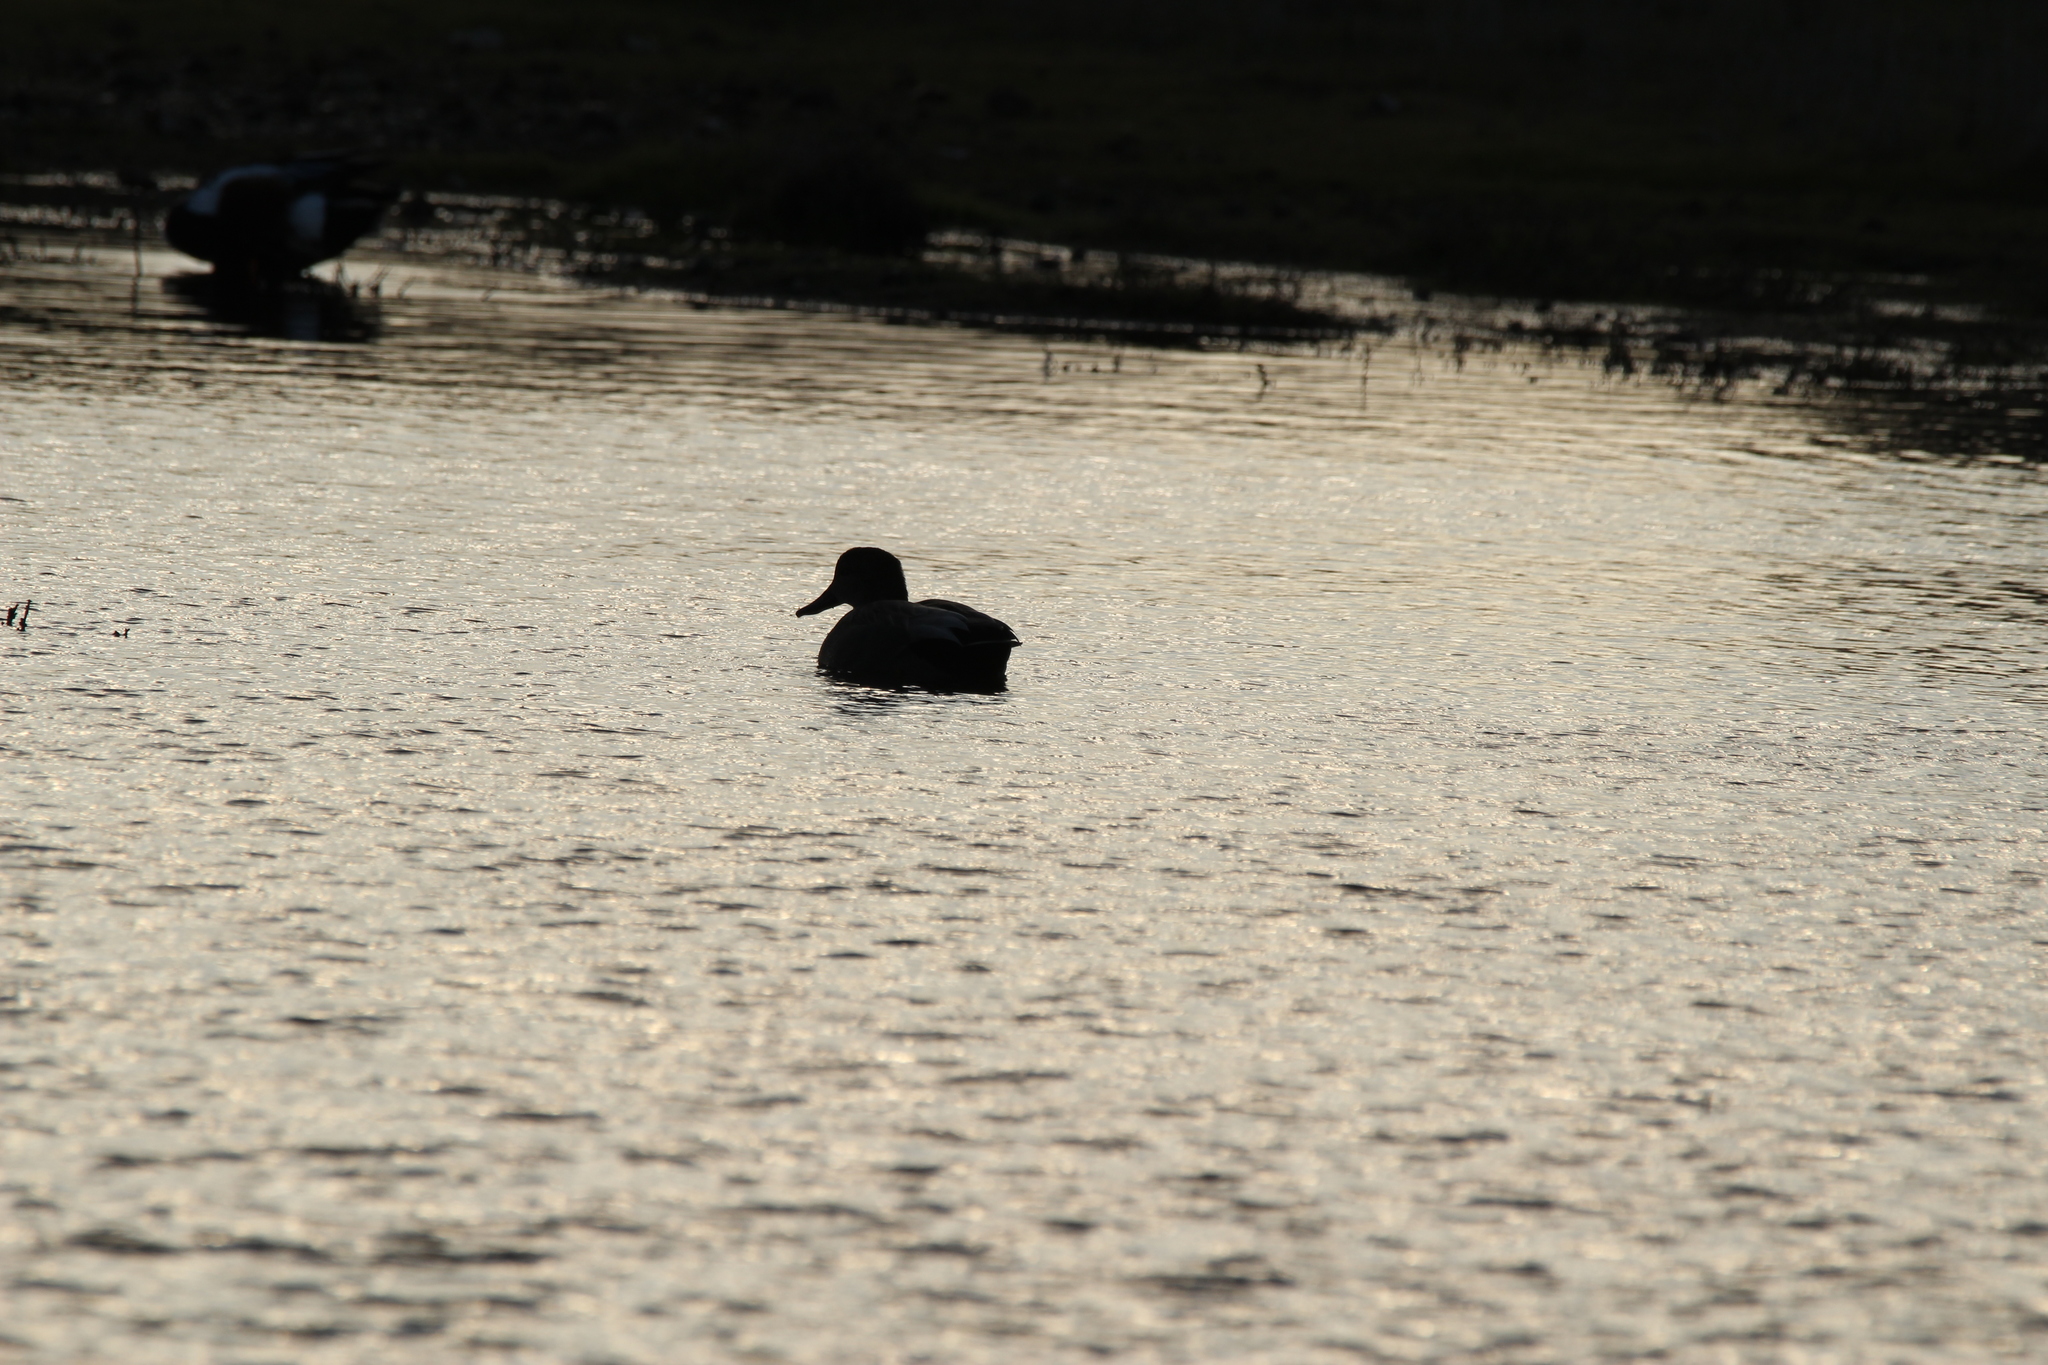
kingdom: Animalia
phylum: Chordata
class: Aves
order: Anseriformes
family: Anatidae
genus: Mareca
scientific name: Mareca strepera
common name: Gadwall
